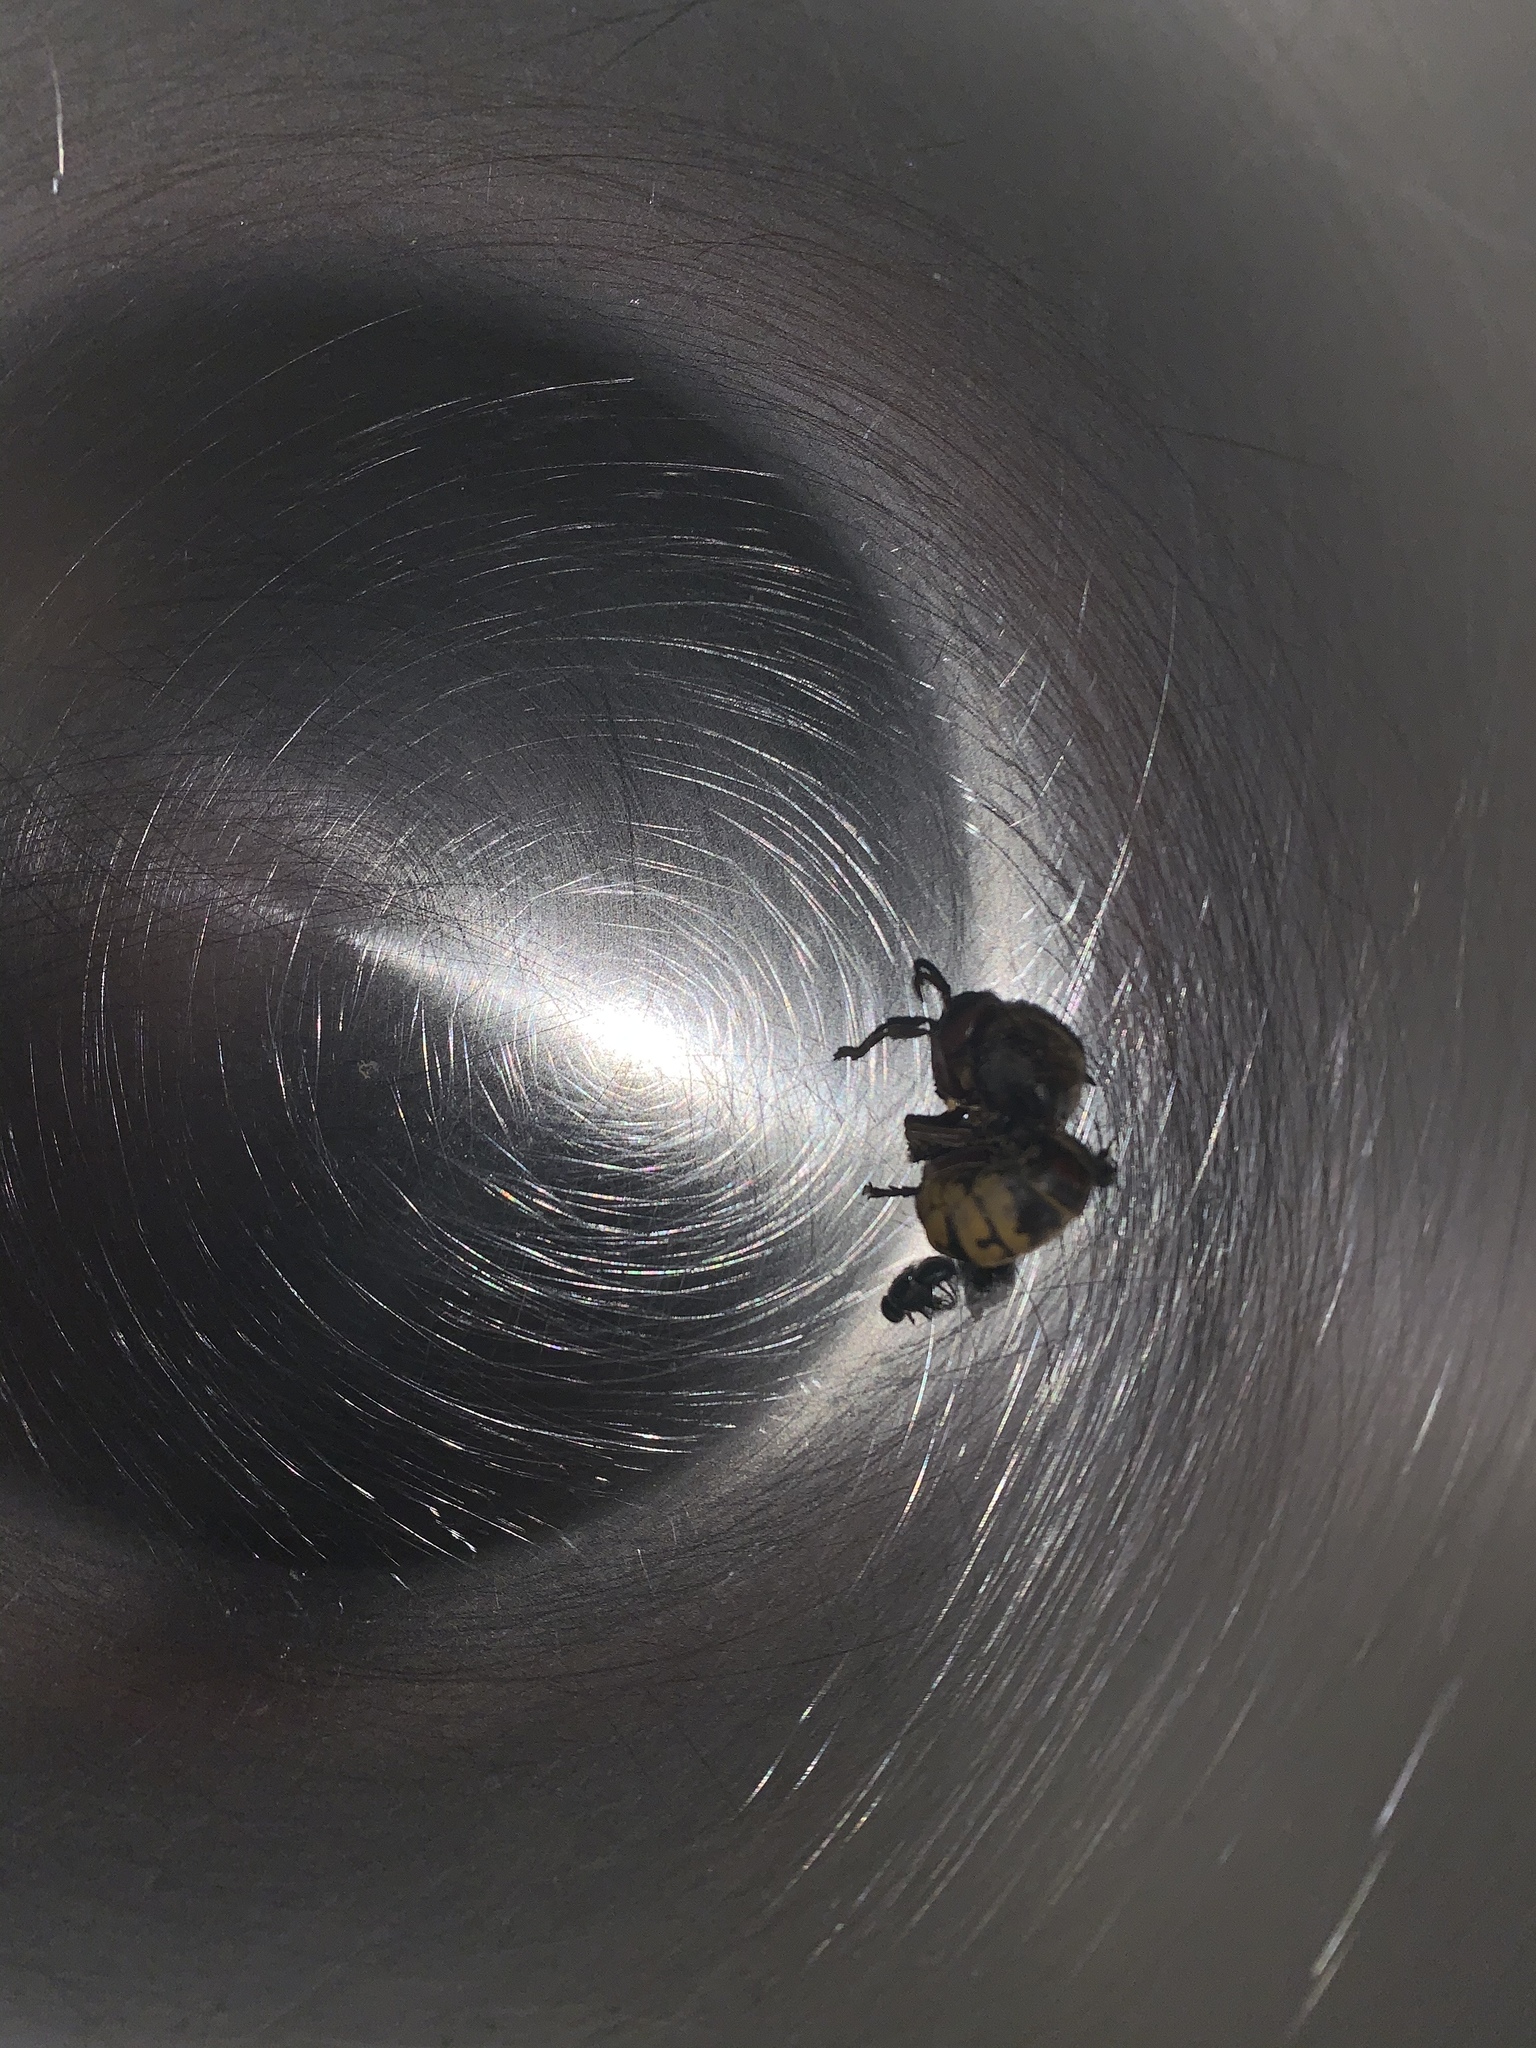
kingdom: Animalia
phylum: Arthropoda
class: Insecta
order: Hymenoptera
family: Vespidae
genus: Vespa
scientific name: Vespa crabro
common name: Hornet
